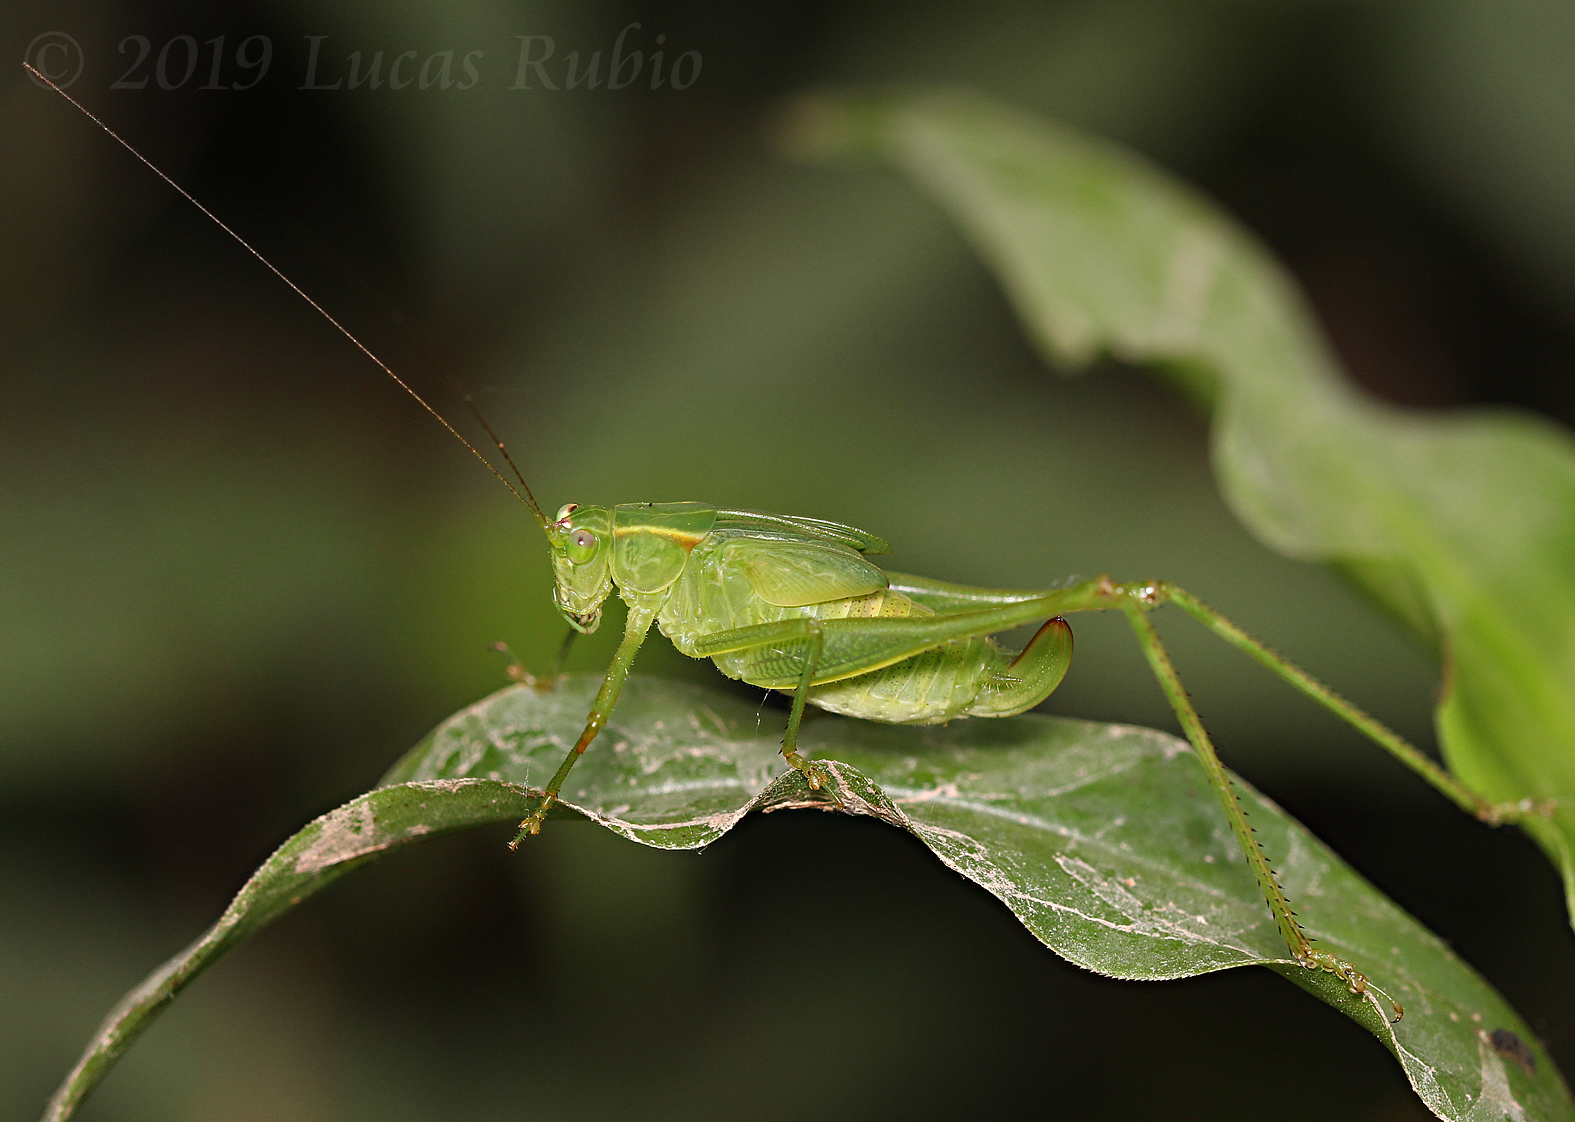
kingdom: Animalia
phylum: Arthropoda
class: Insecta
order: Orthoptera
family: Tettigoniidae
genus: Ligocatinus
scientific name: Ligocatinus spinatus
